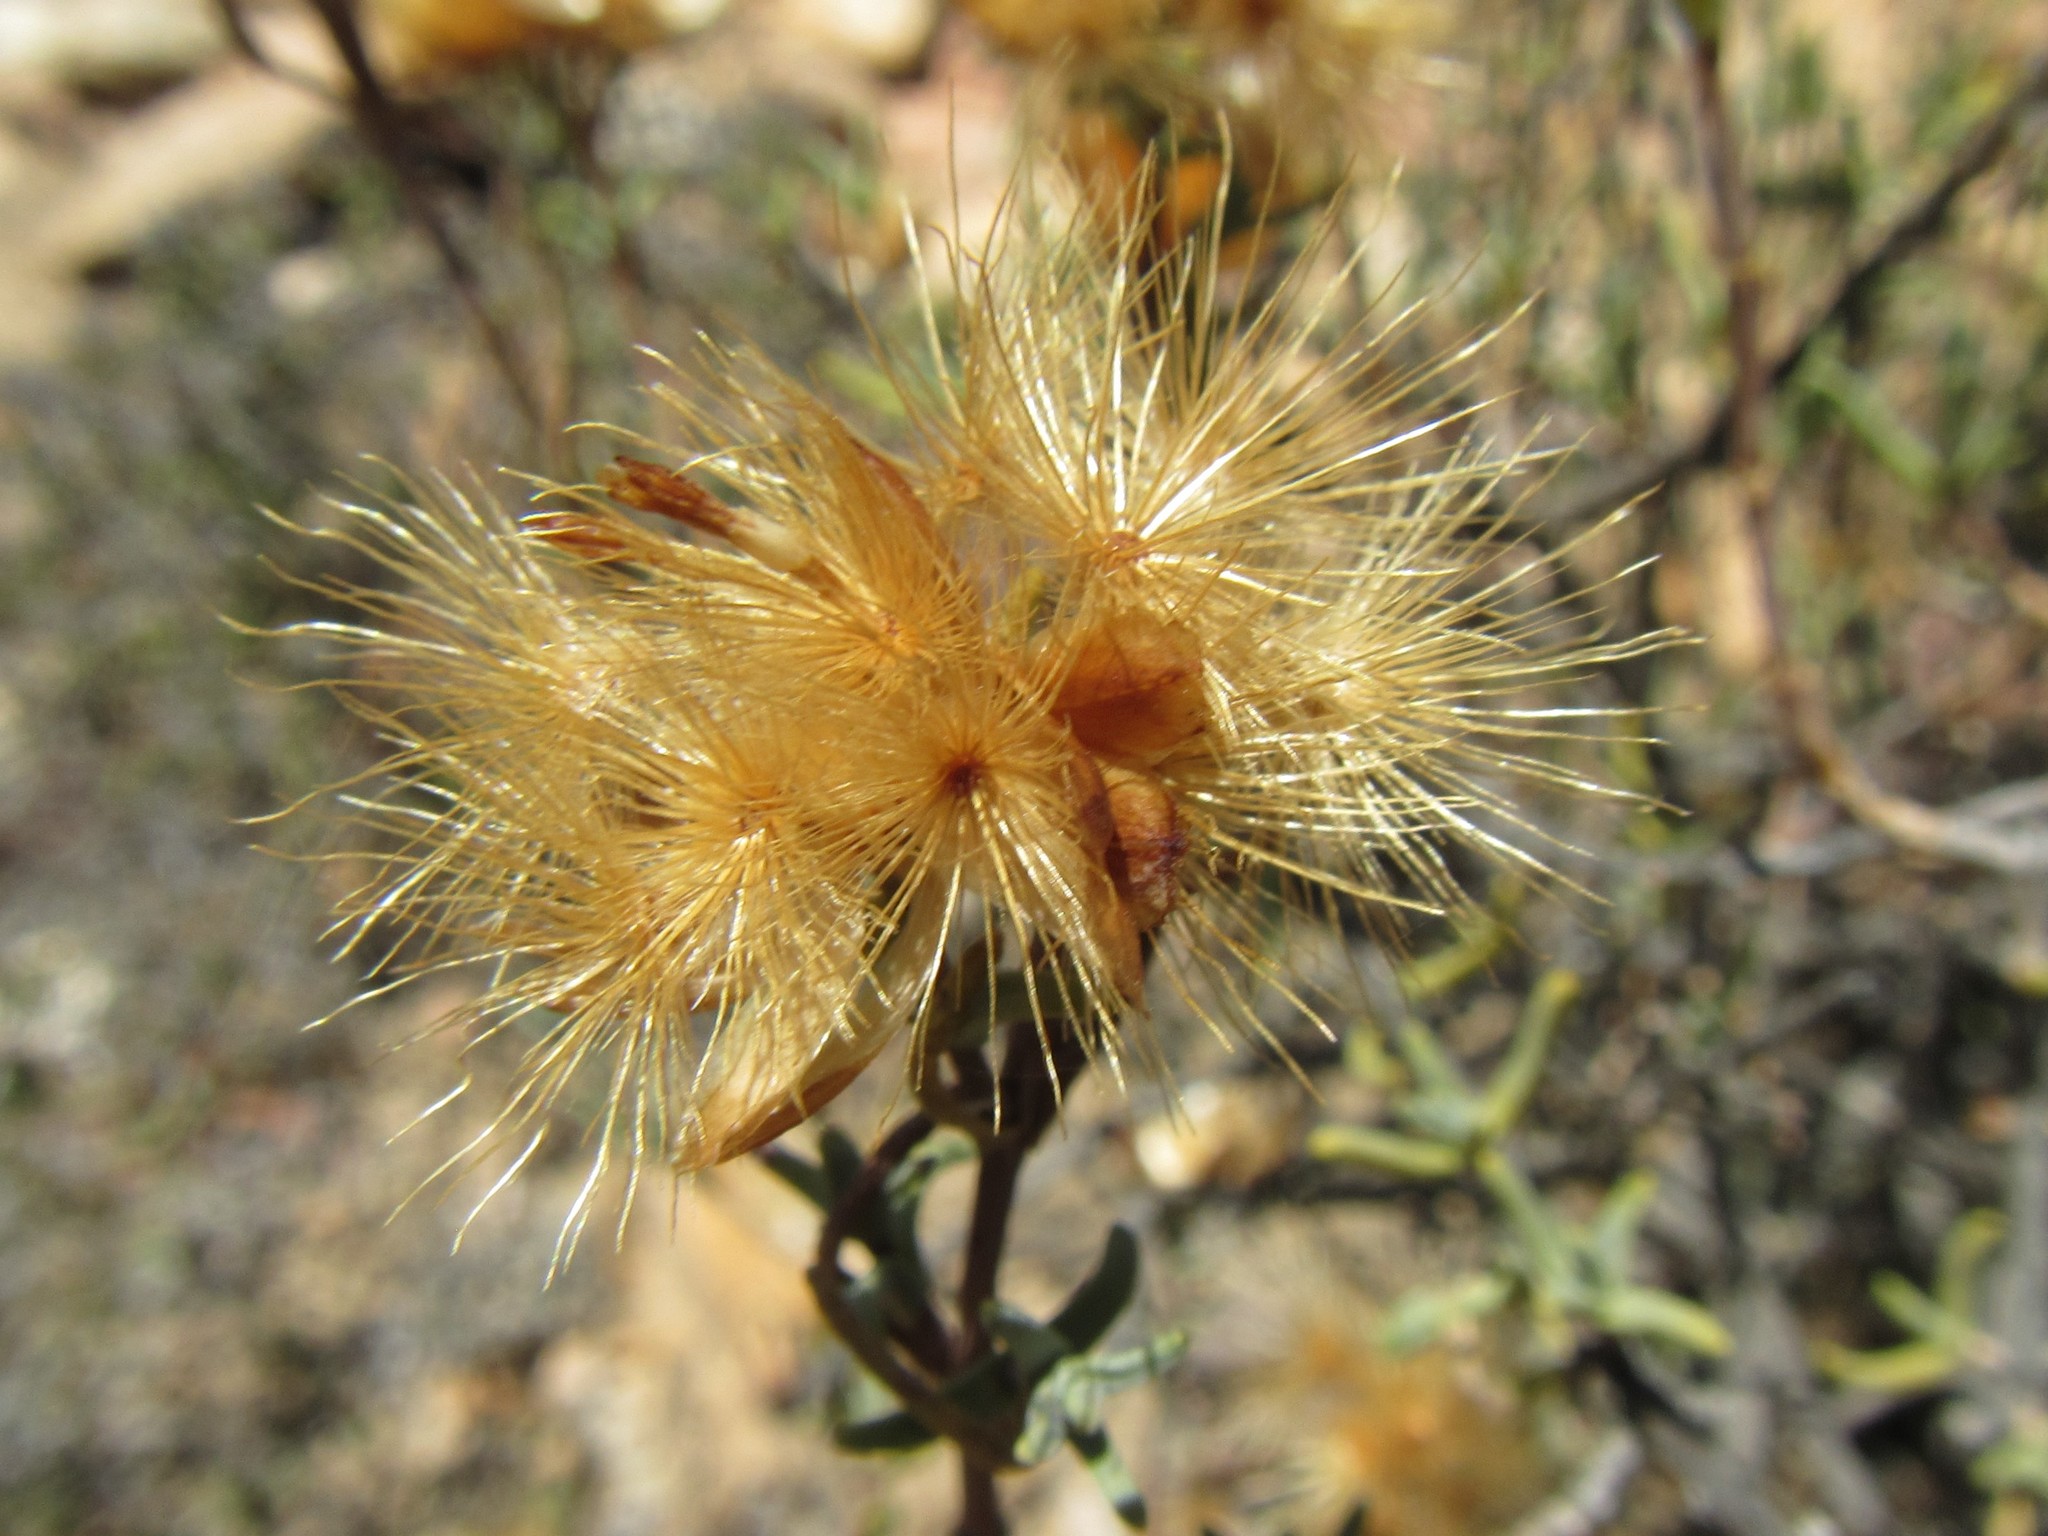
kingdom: Plantae
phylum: Tracheophyta
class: Magnoliopsida
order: Asterales
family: Asteraceae
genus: Pteronia
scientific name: Pteronia succulenta
